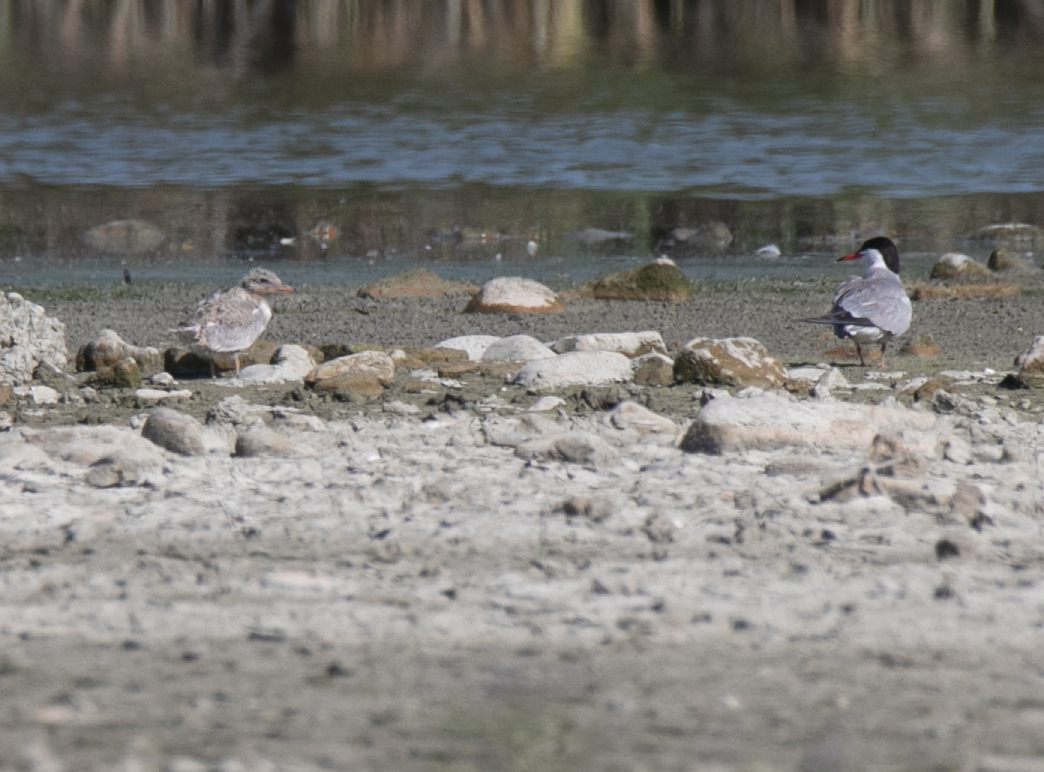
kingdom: Animalia
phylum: Chordata
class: Aves
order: Charadriiformes
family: Laridae
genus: Sterna
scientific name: Sterna hirundo
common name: Common tern
